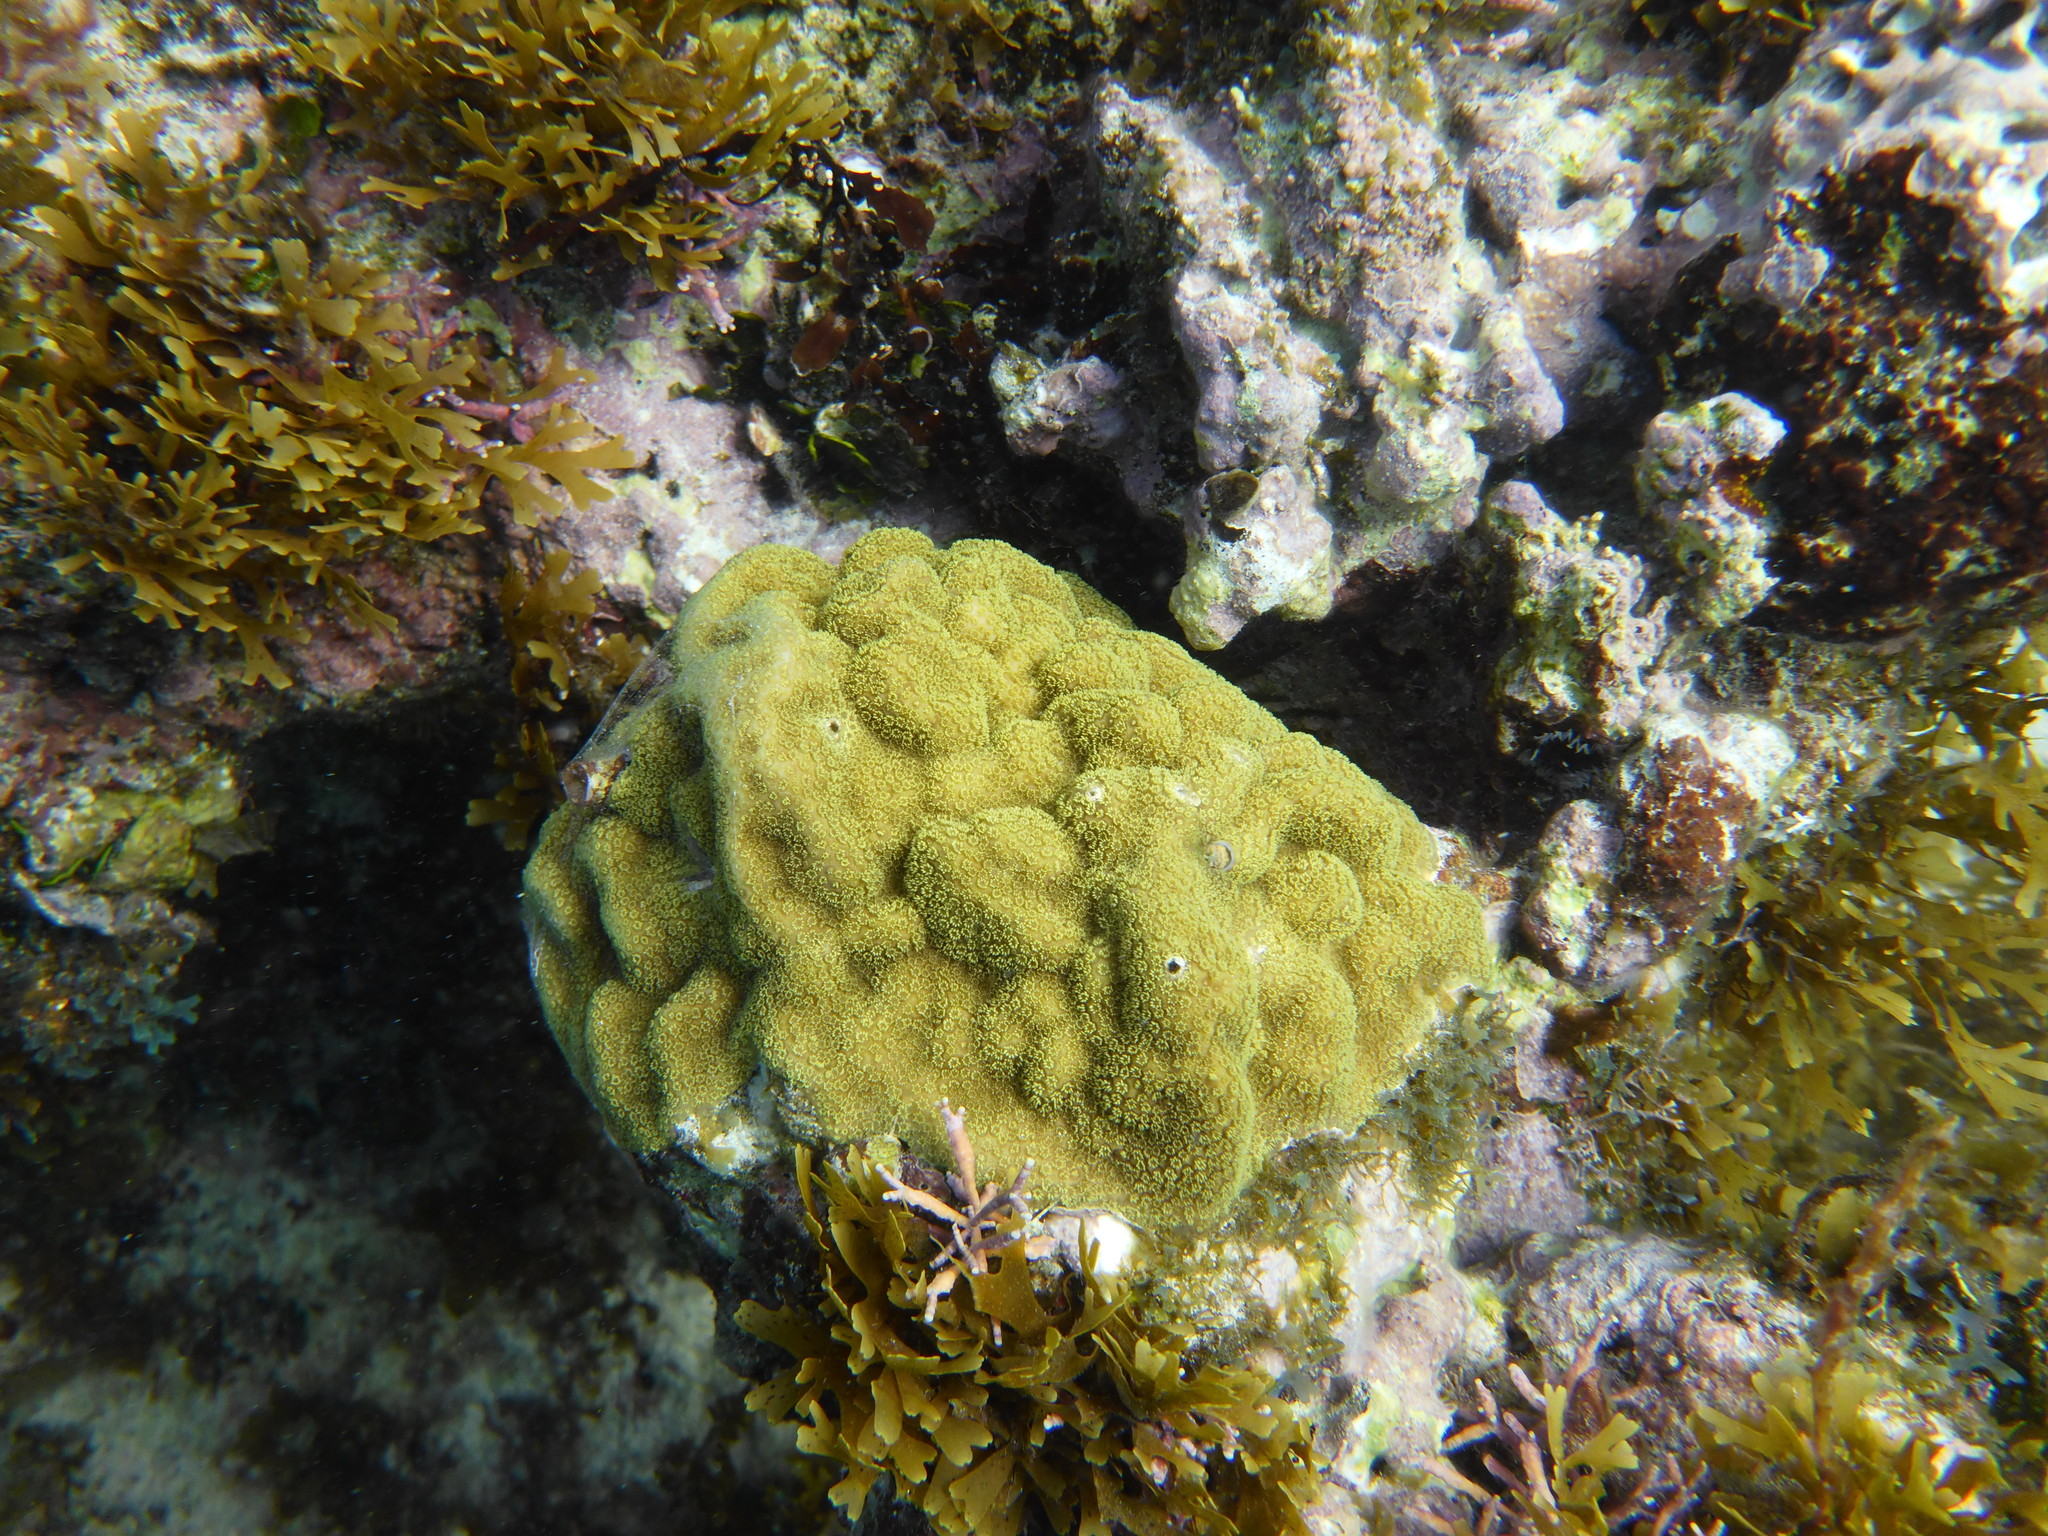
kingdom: Animalia
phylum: Cnidaria
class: Anthozoa
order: Scleractinia
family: Poritidae
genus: Porites
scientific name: Porites astreoides
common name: Mustard hill coral
